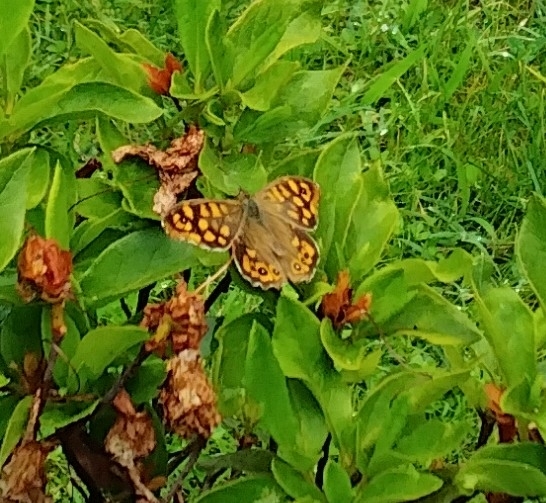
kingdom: Animalia
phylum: Arthropoda
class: Insecta
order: Lepidoptera
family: Nymphalidae
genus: Pararge
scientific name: Pararge aegeria
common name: Speckled wood
